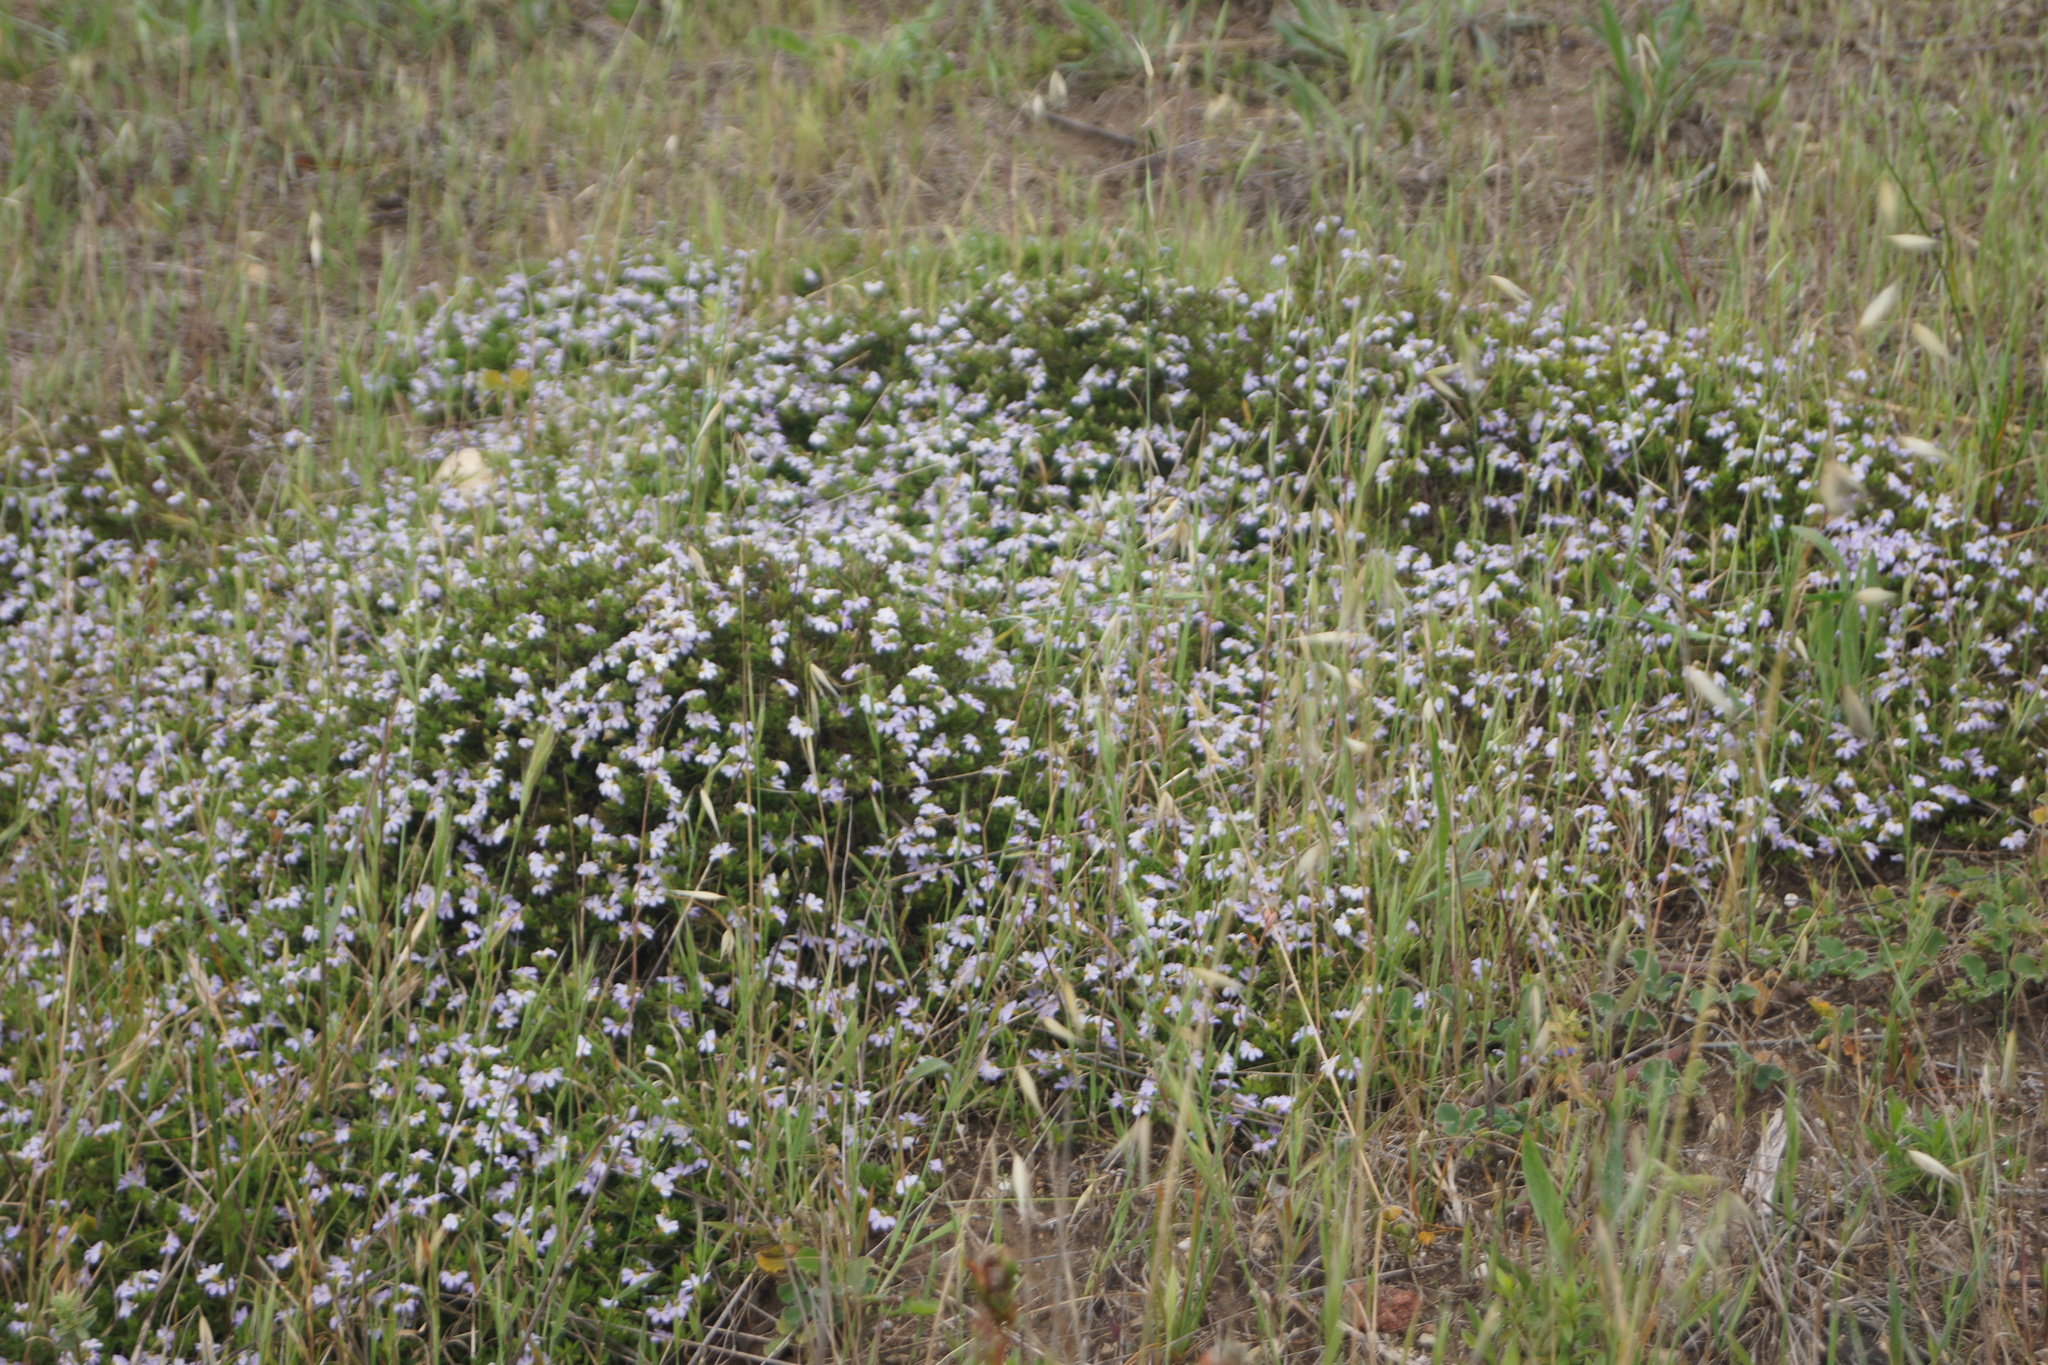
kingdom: Plantae
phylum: Tracheophyta
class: Magnoliopsida
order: Asterales
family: Goodeniaceae
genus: Scaevola
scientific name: Scaevola albida
